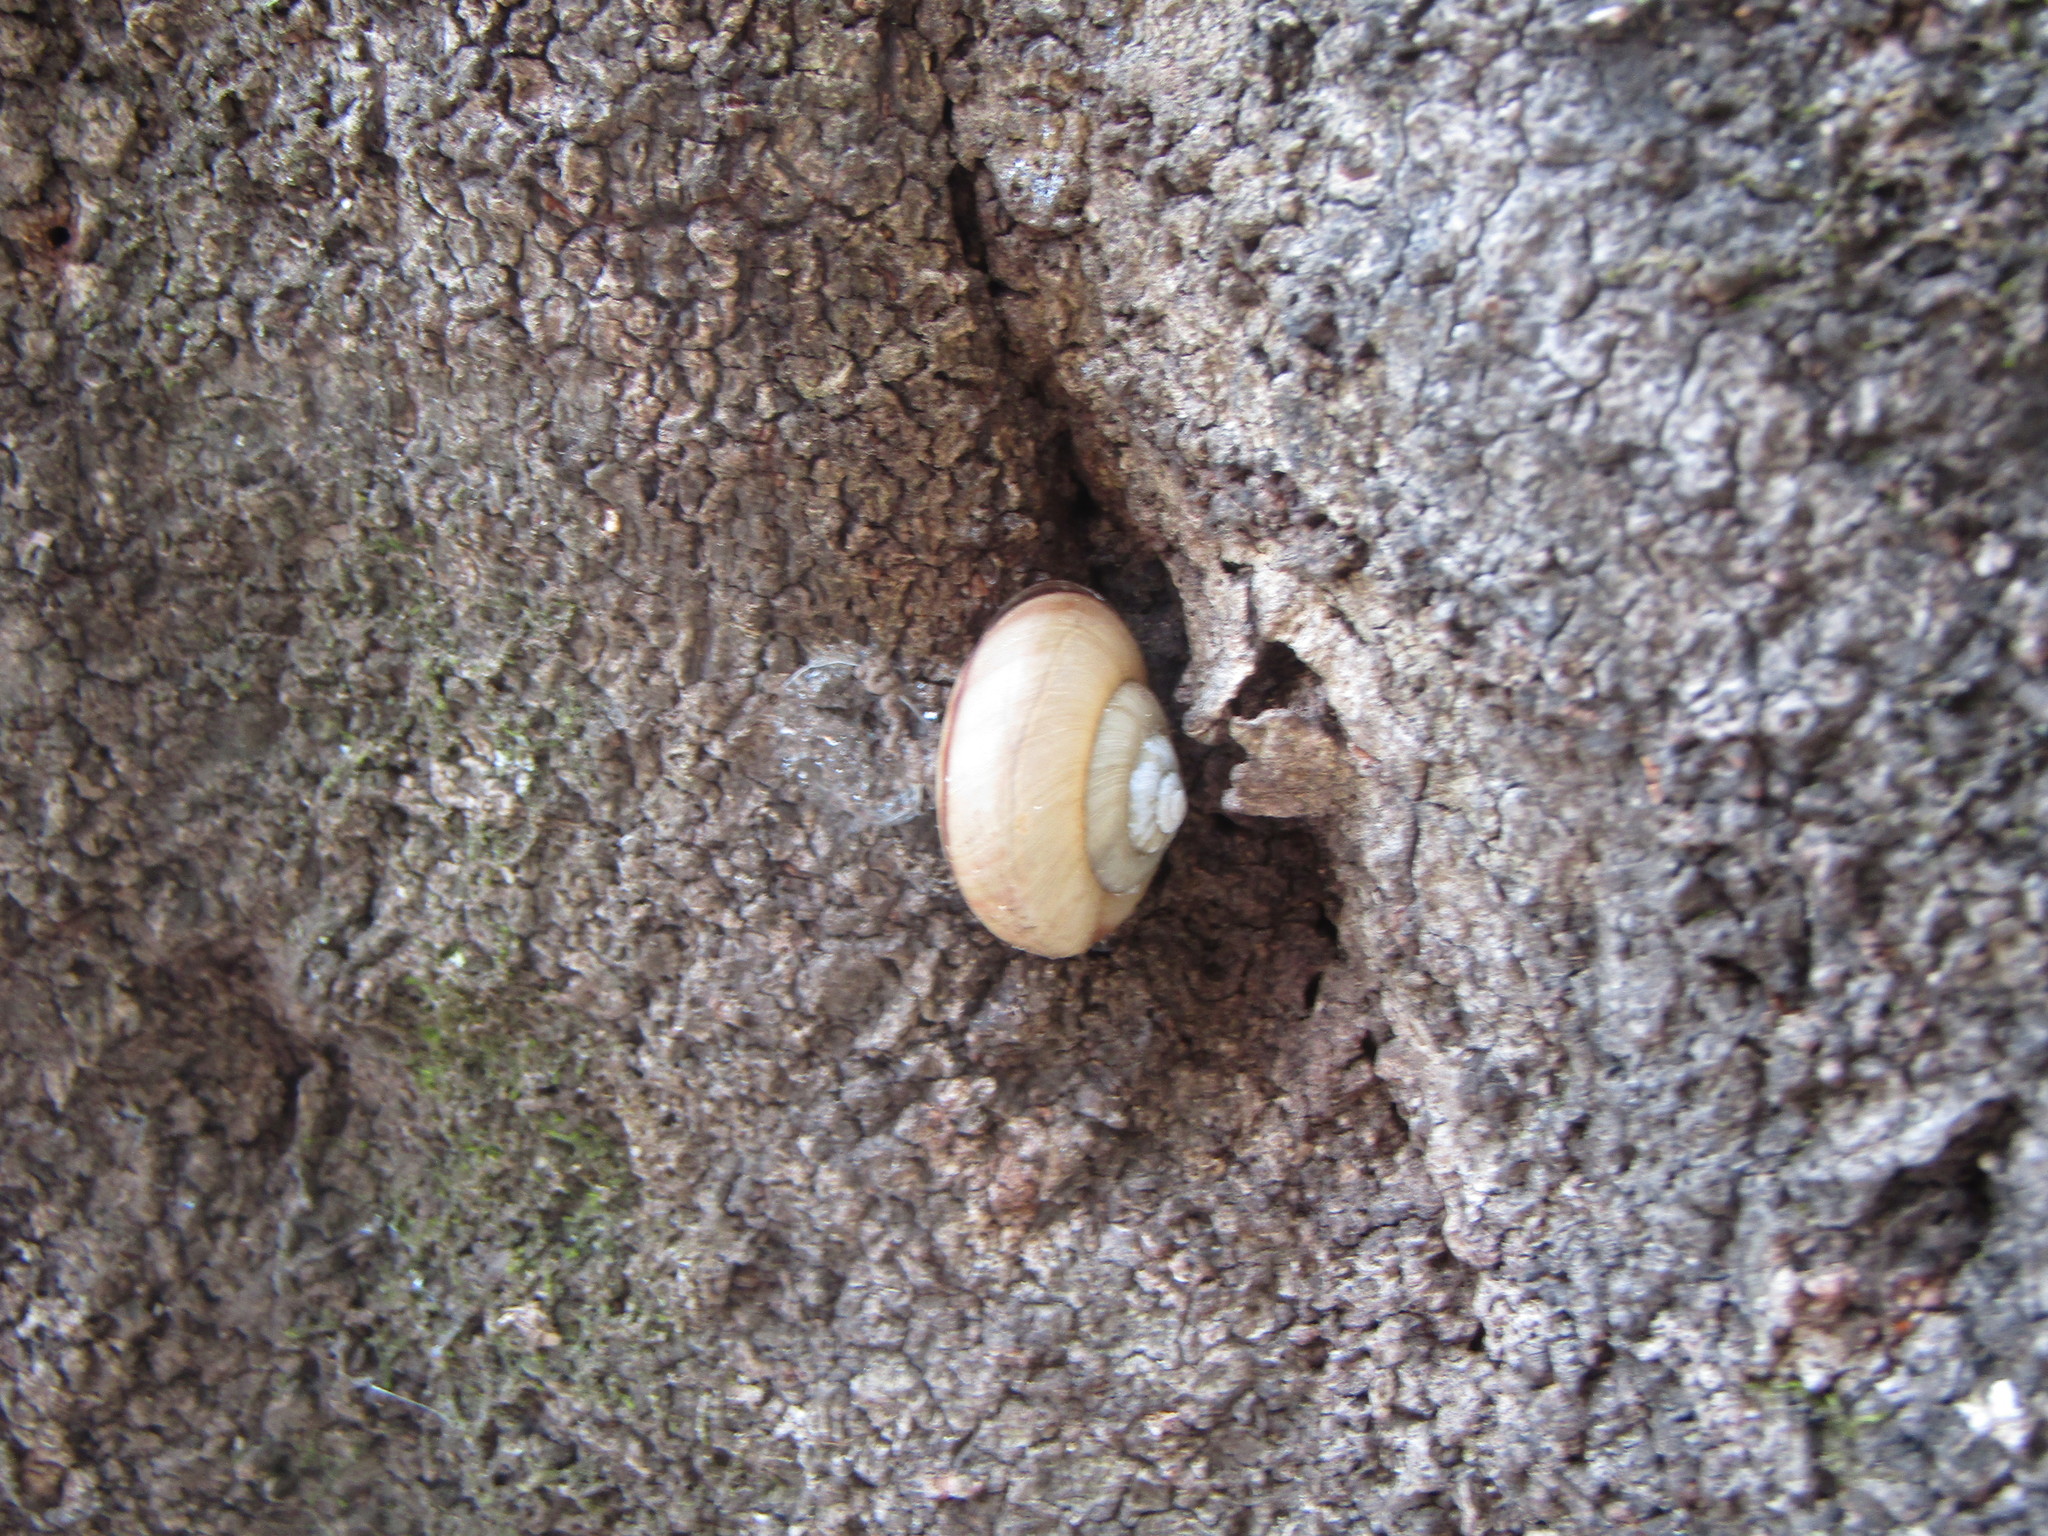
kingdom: Animalia
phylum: Mollusca
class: Gastropoda
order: Stylommatophora
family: Camaenidae
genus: Euhadra
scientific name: Euhadra amaliae
